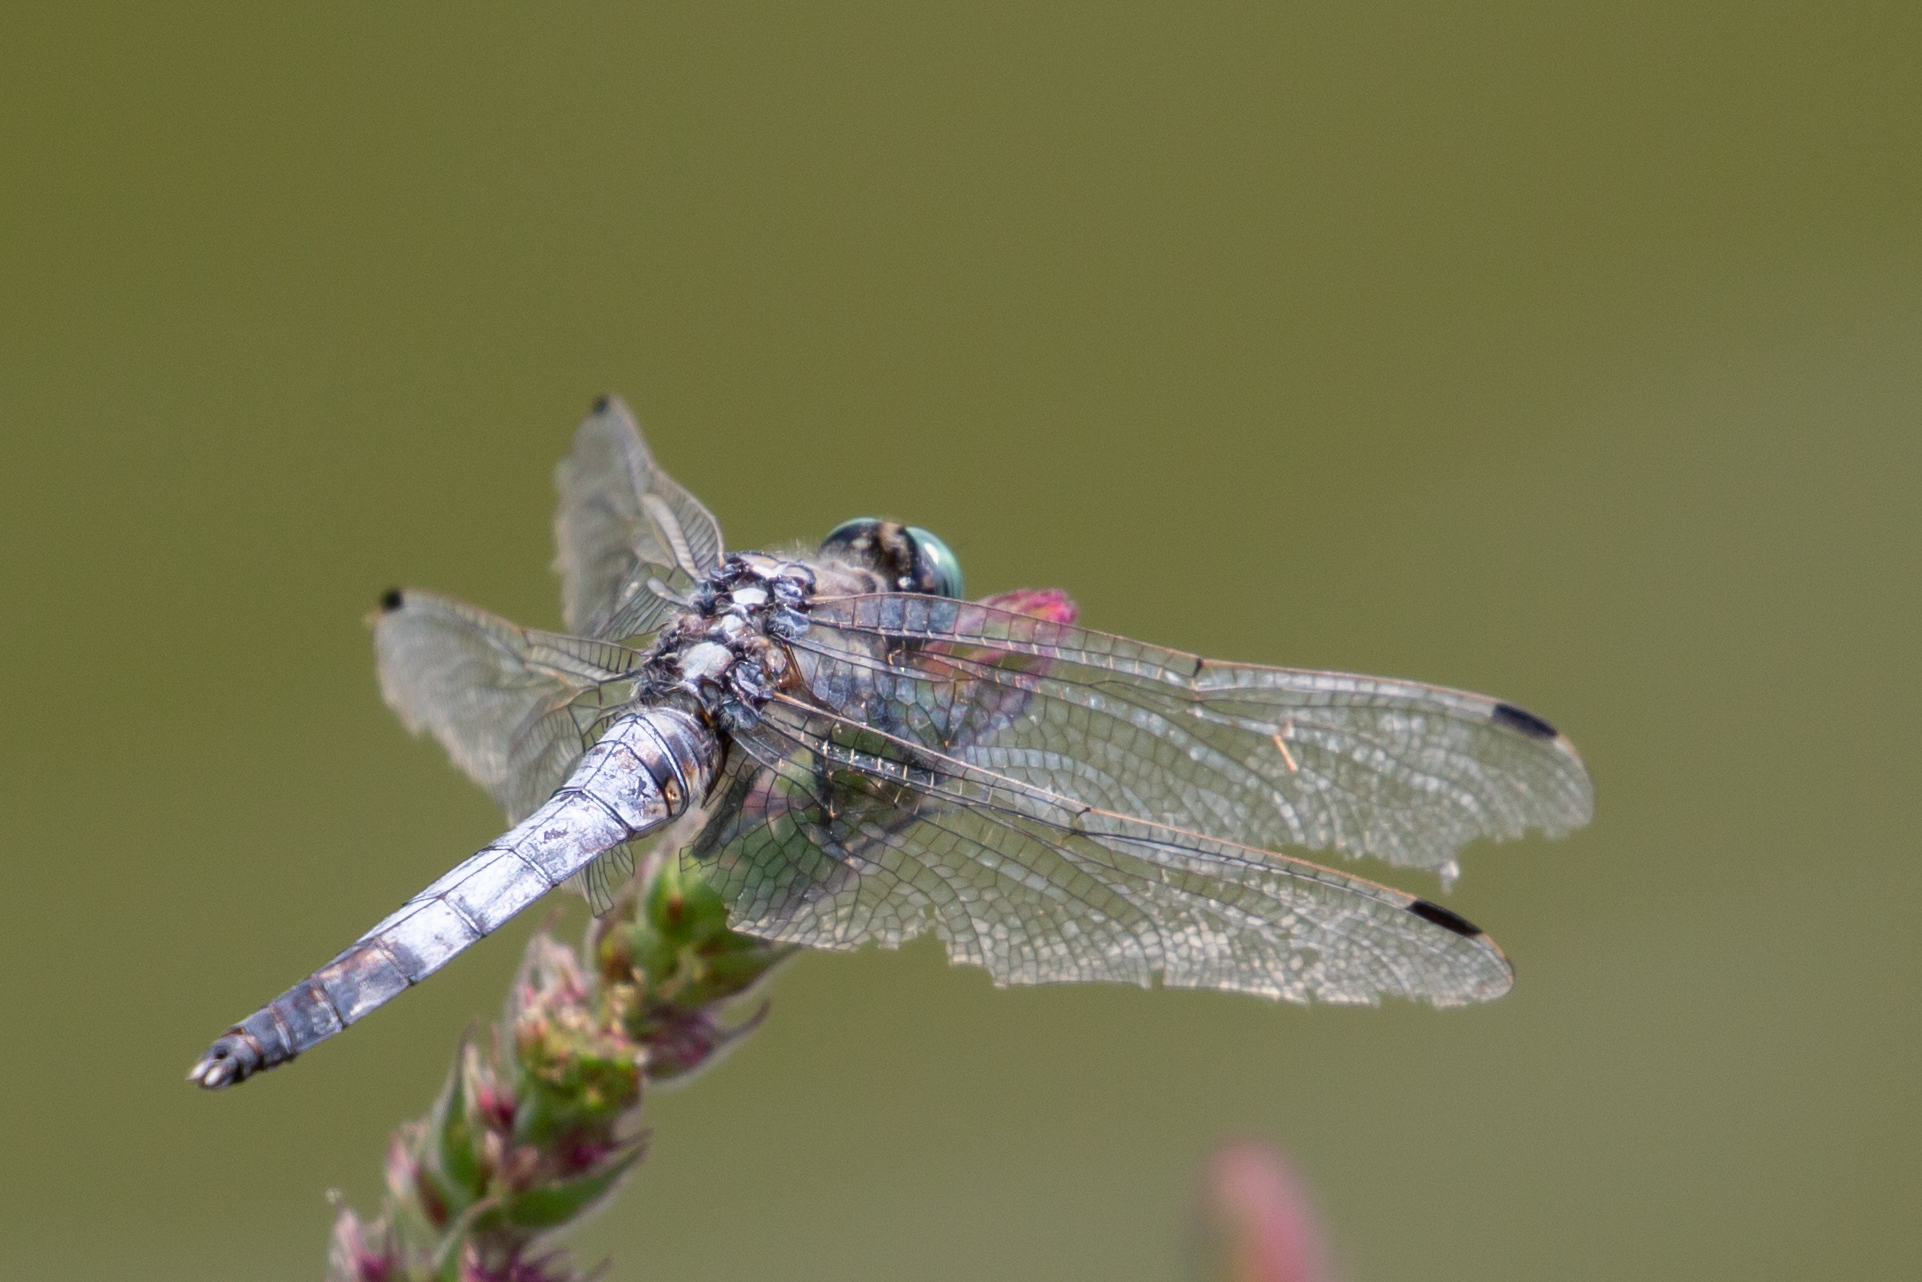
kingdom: Animalia
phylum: Arthropoda
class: Insecta
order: Odonata
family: Libellulidae
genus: Orthetrum
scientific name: Orthetrum albistylum
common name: White-tailed skimmer
